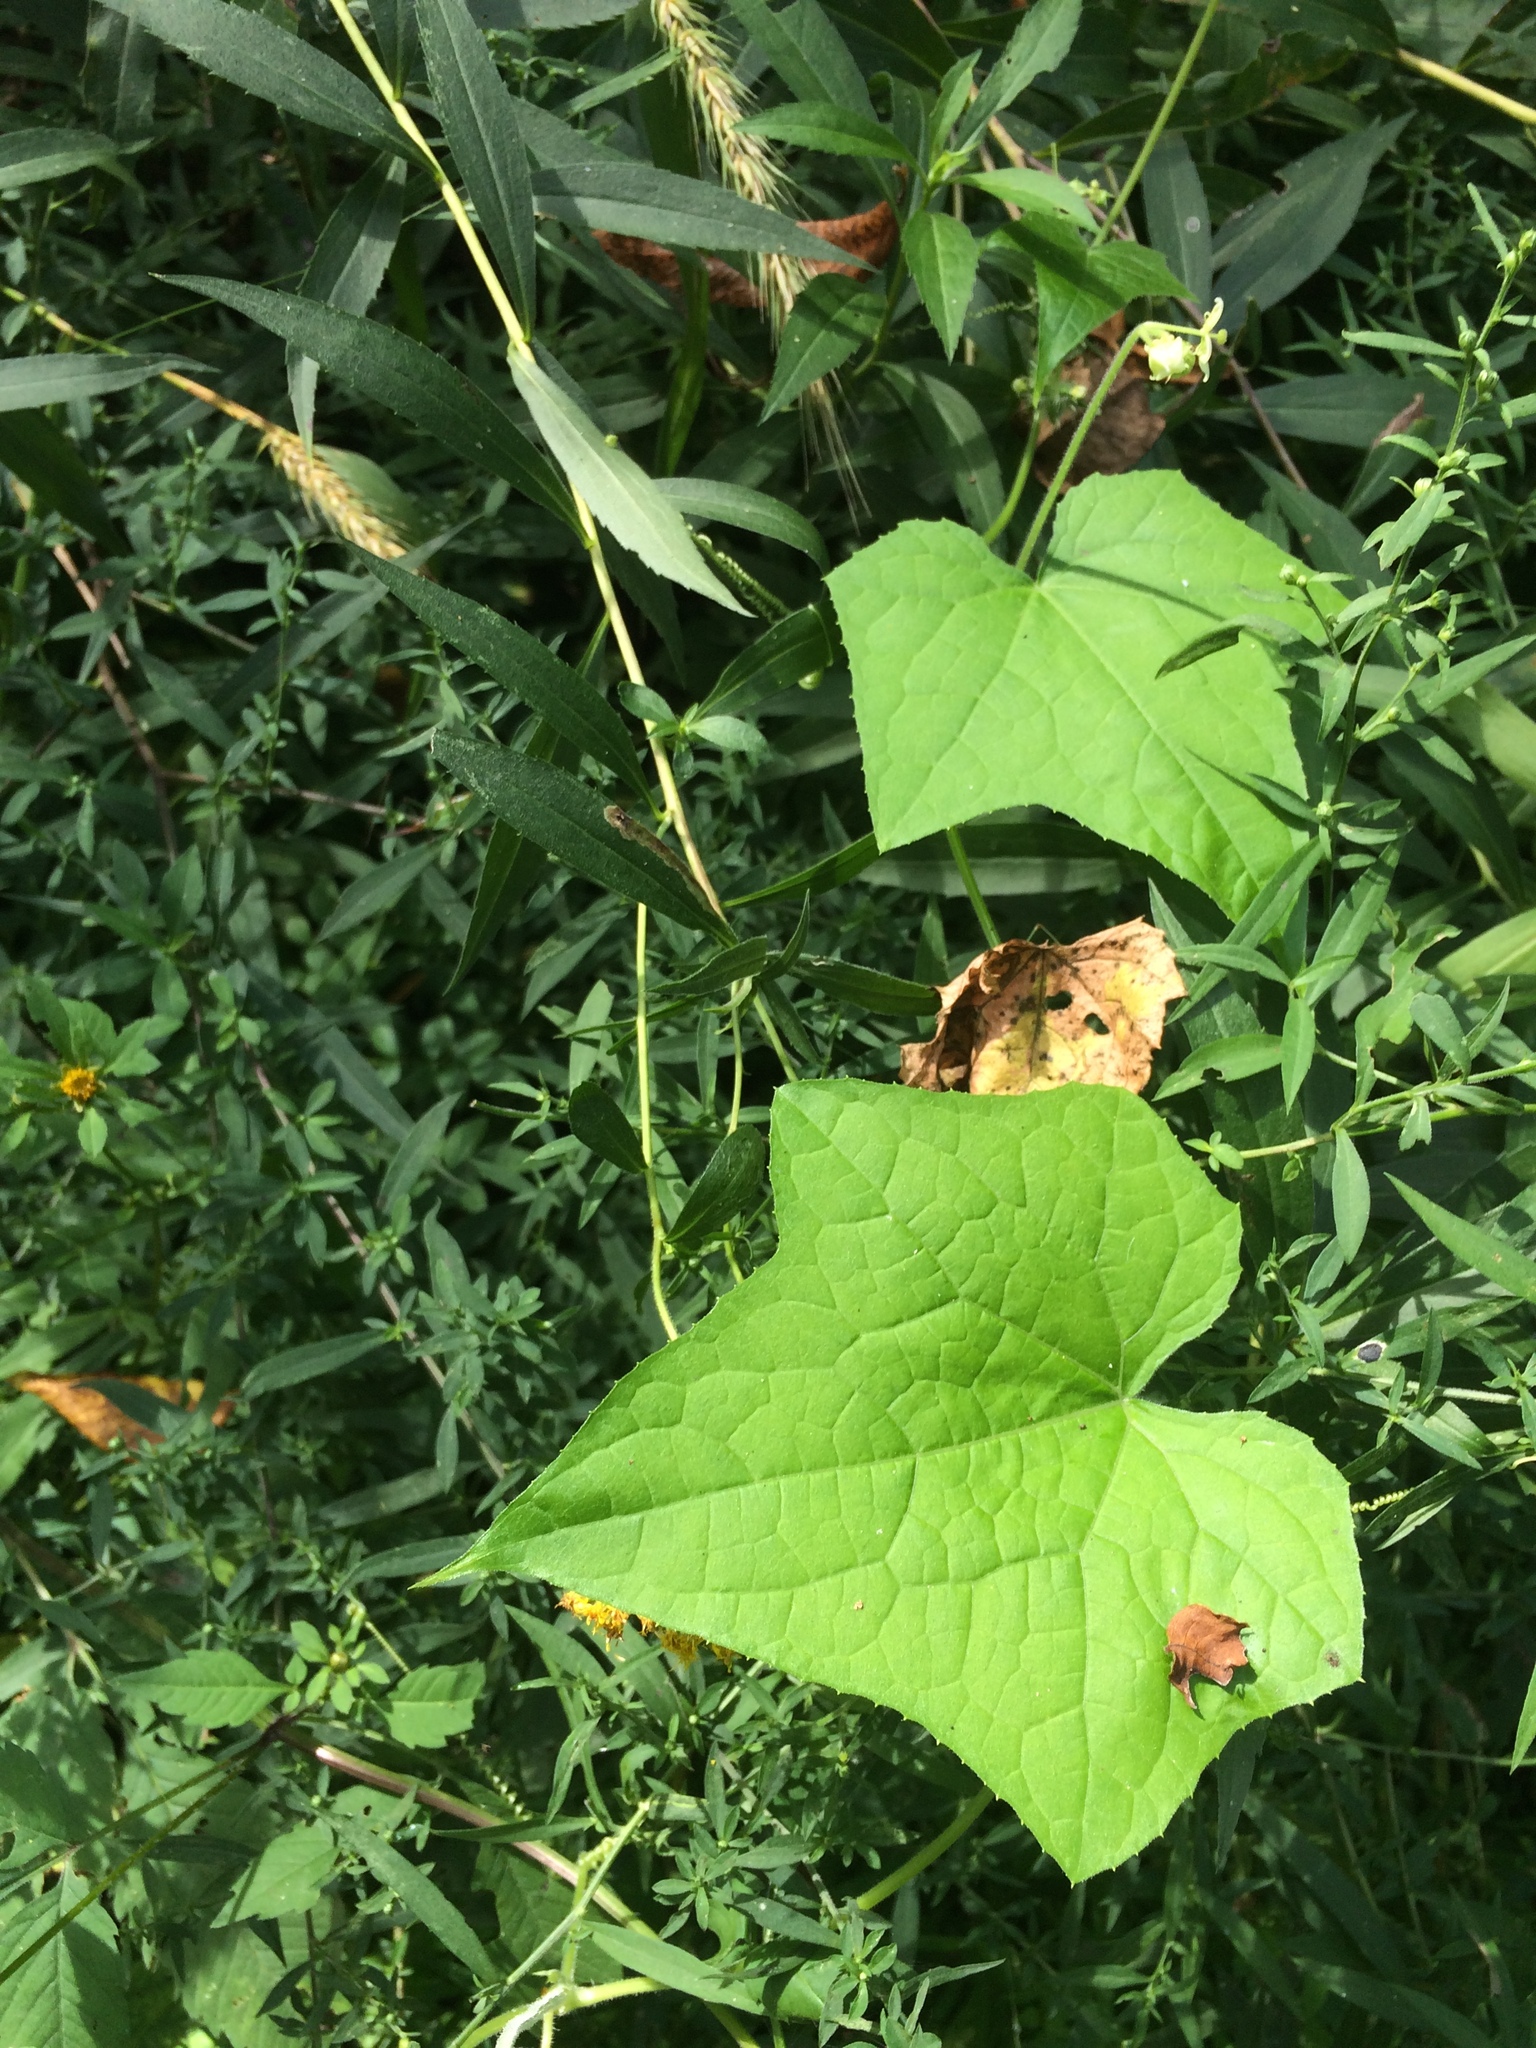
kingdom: Plantae
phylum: Tracheophyta
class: Magnoliopsida
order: Cucurbitales
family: Cucurbitaceae
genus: Sicyos
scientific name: Sicyos angulatus
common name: Angled burr cucumber
